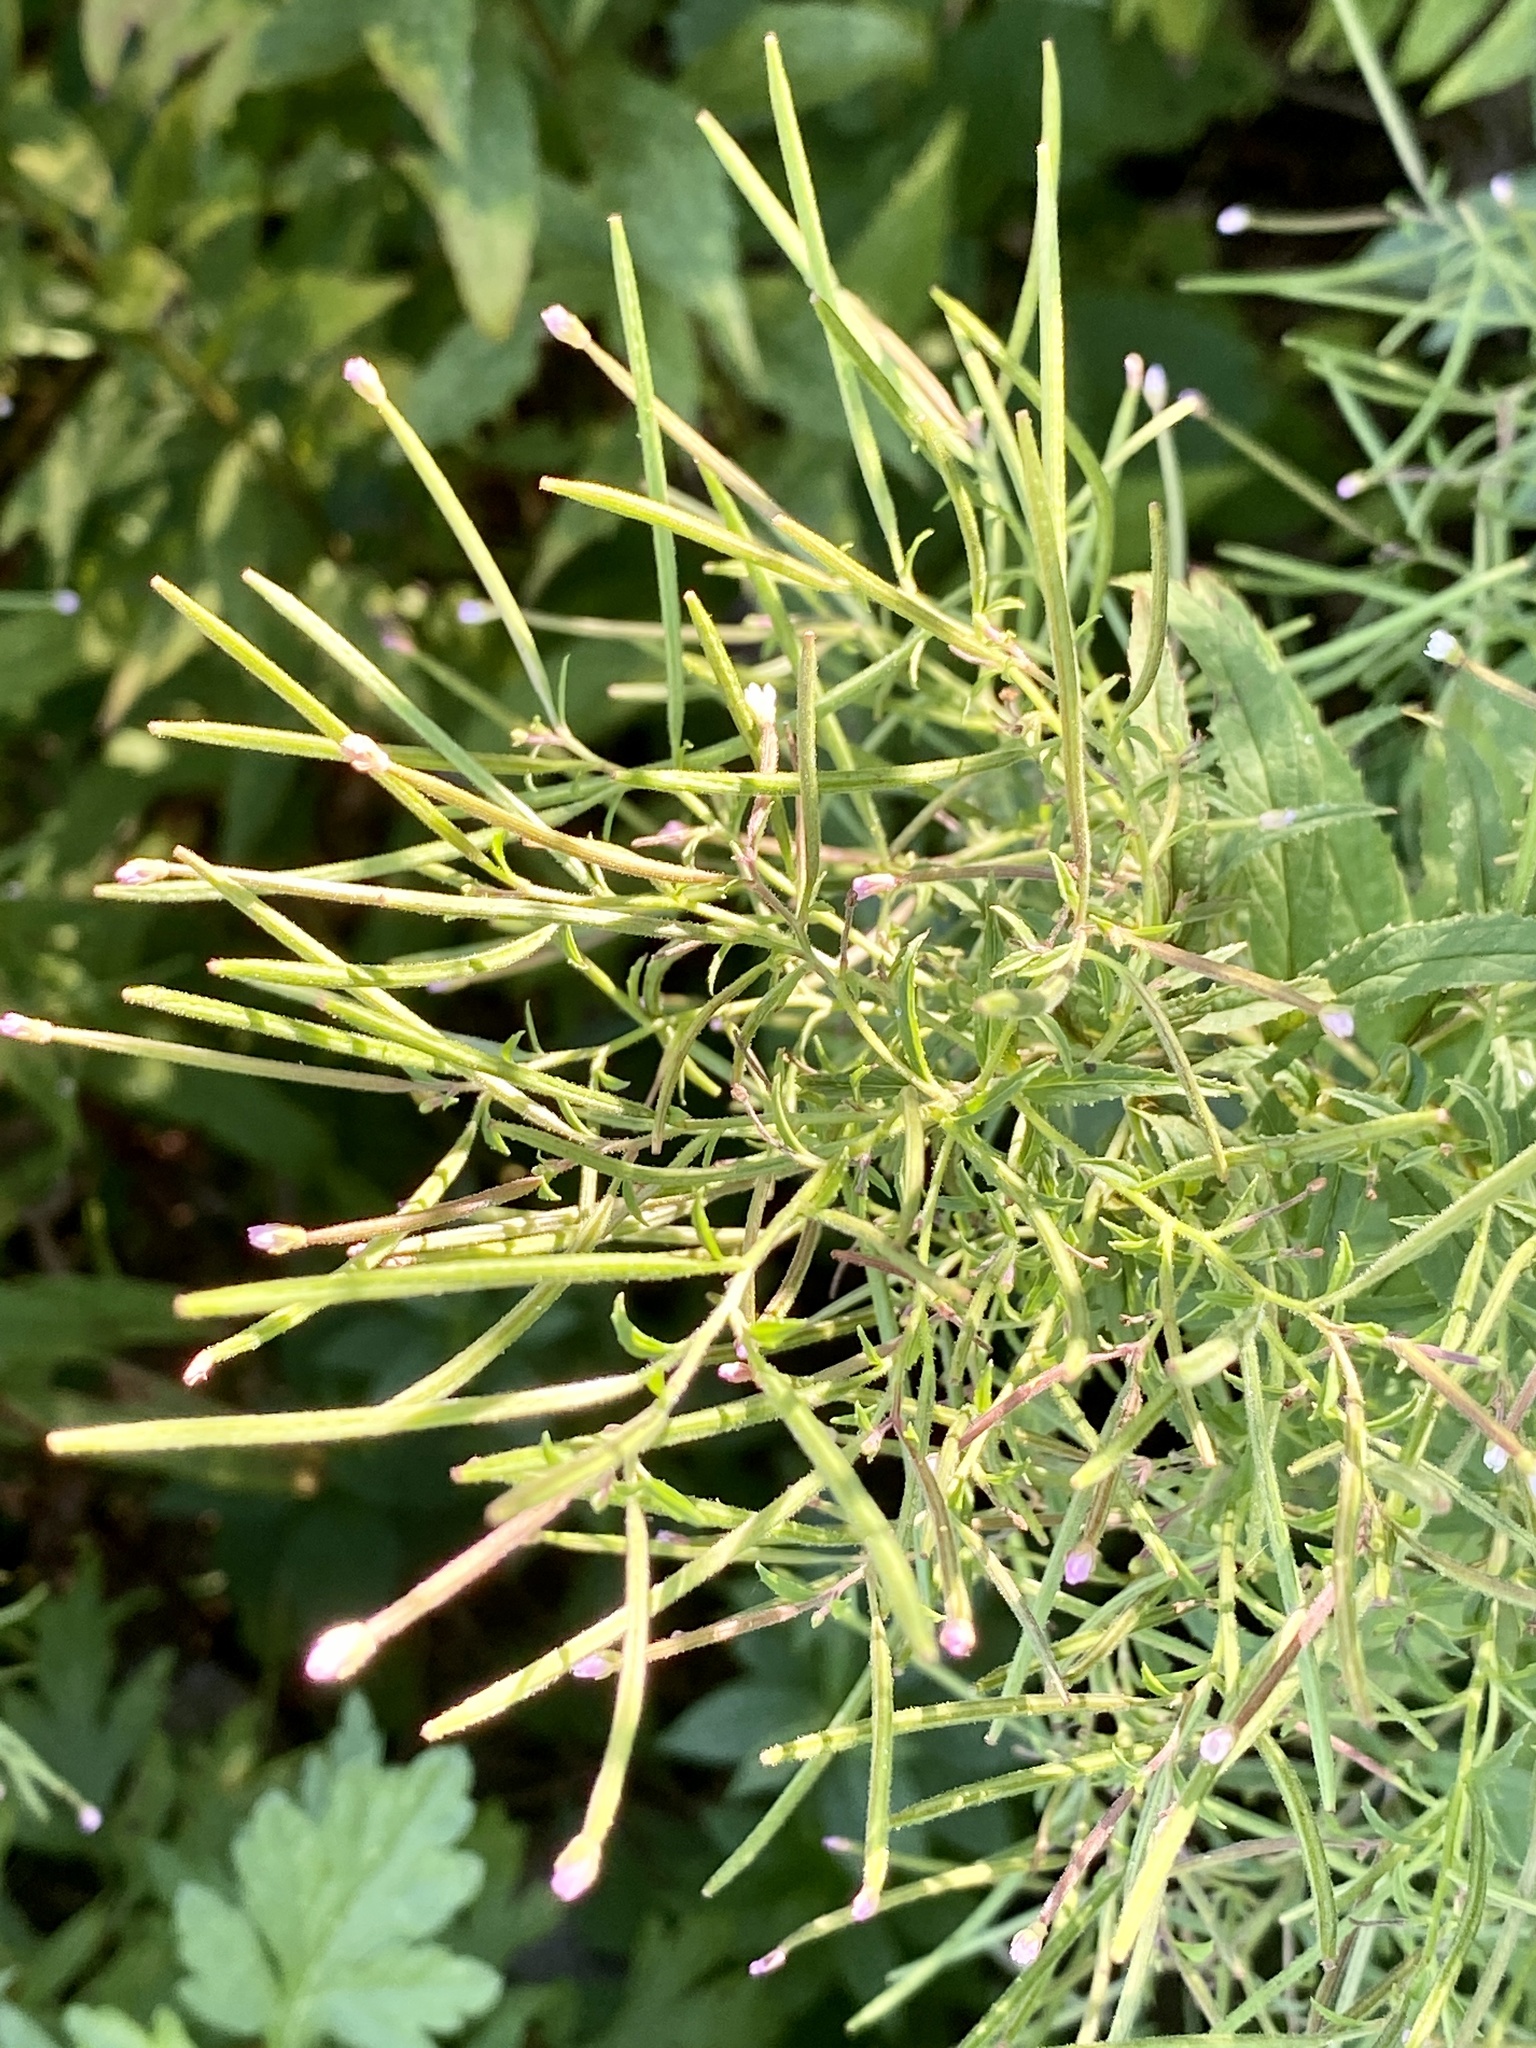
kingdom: Plantae
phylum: Tracheophyta
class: Magnoliopsida
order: Myrtales
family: Onagraceae
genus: Epilobium
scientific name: Epilobium coloratum
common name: Bronze willowherb
